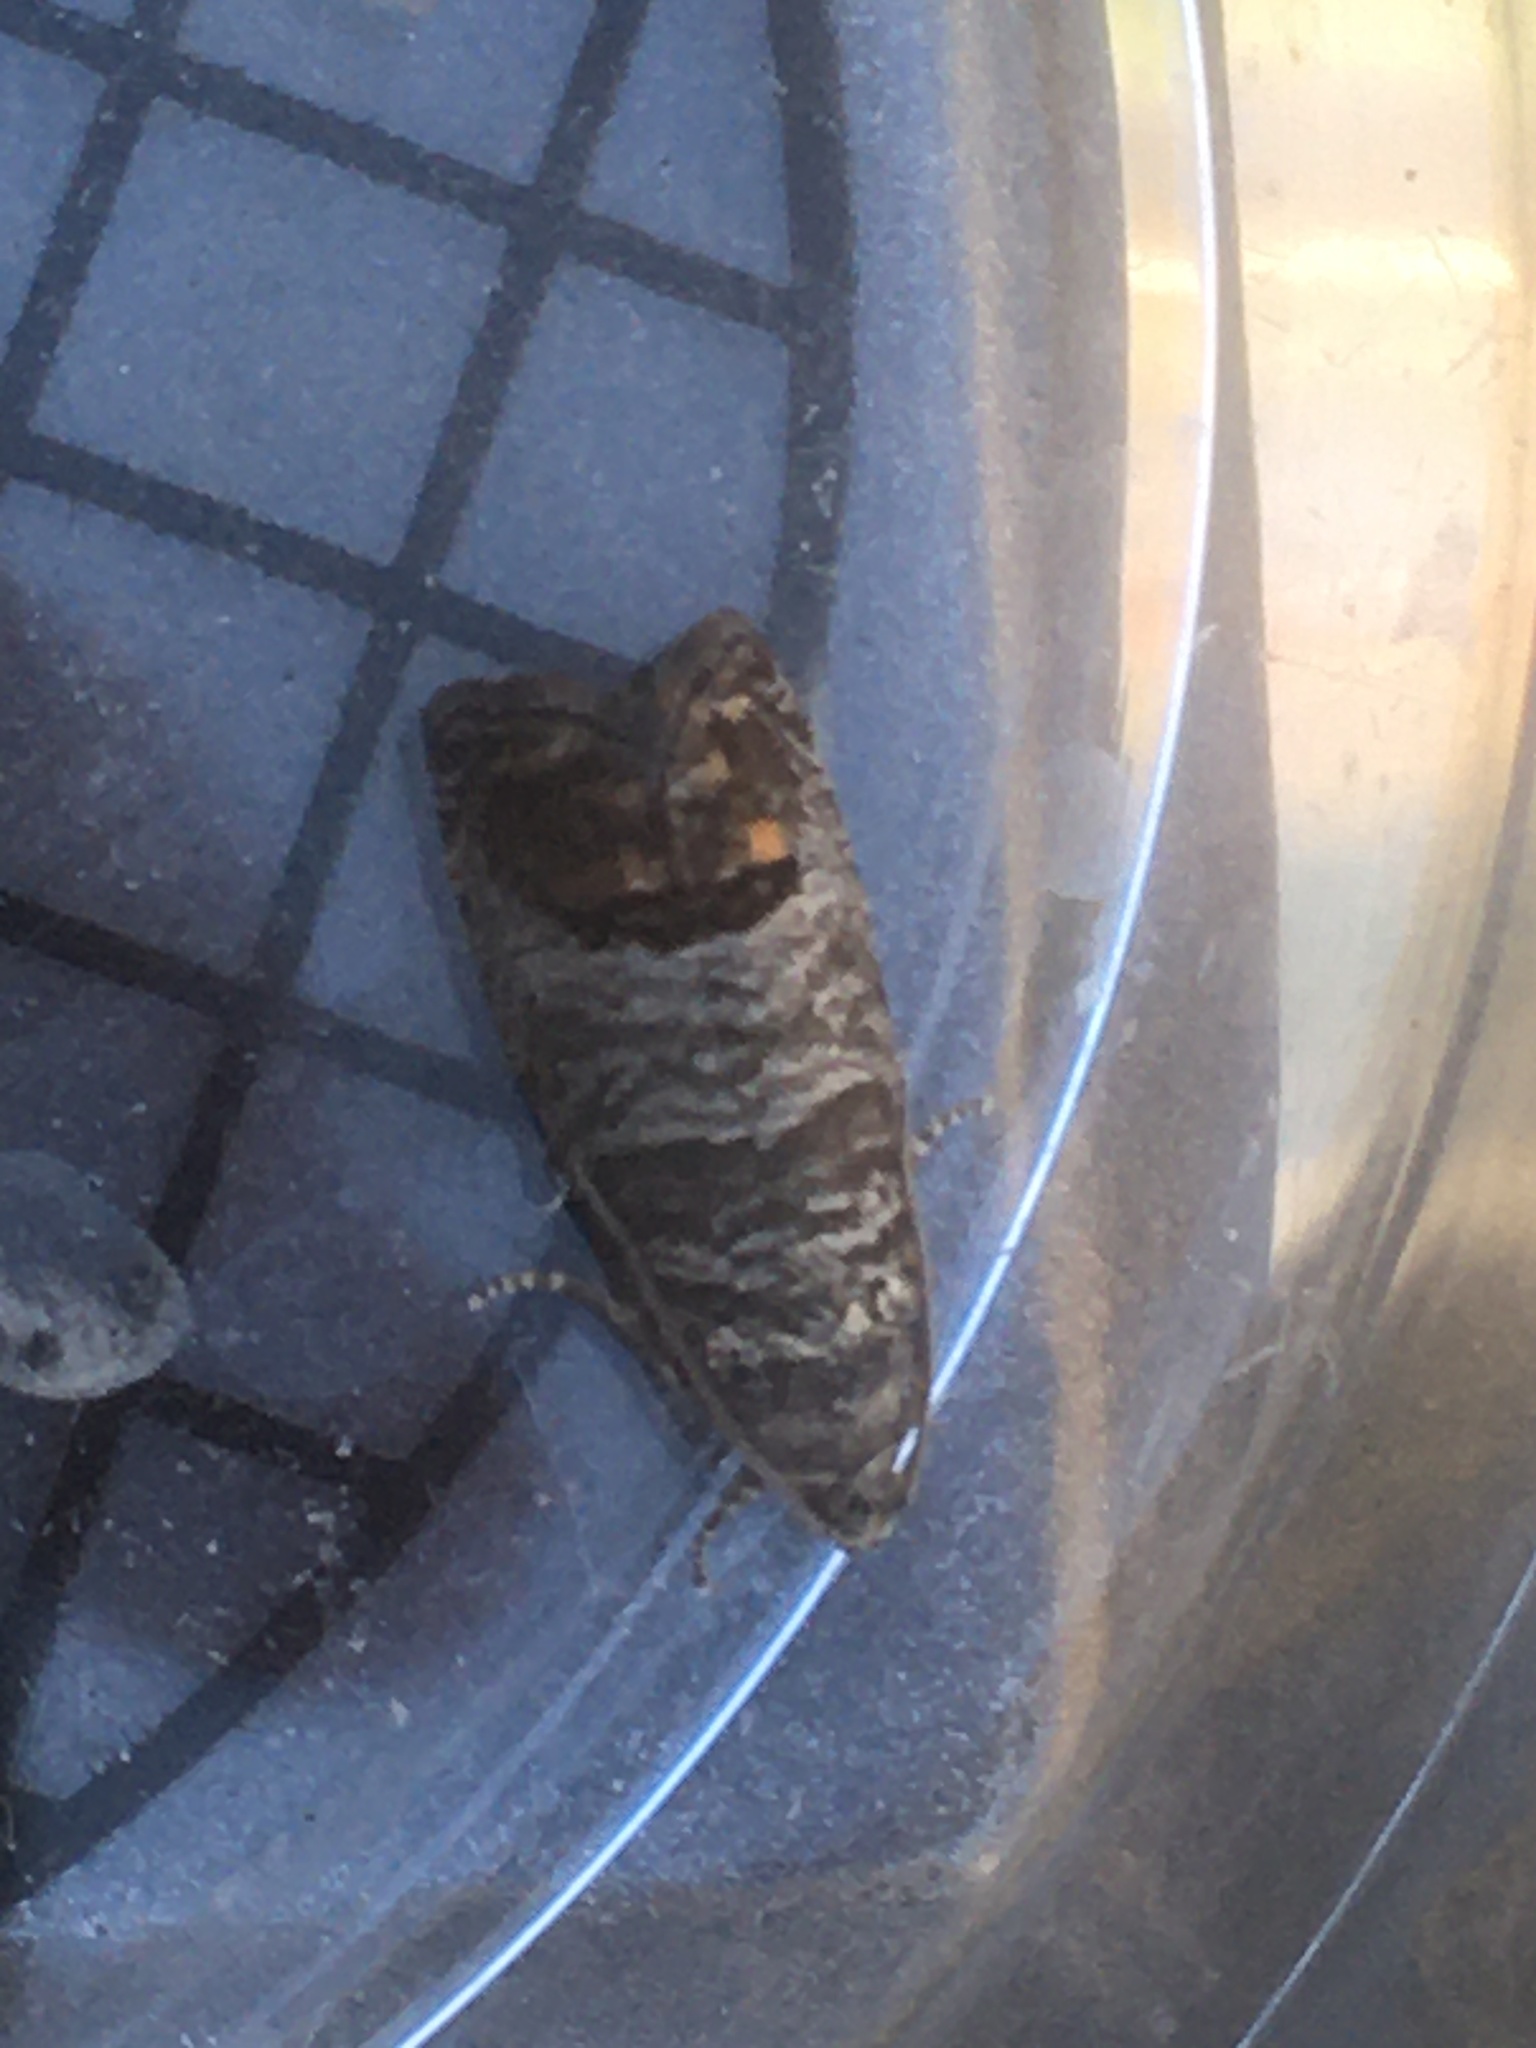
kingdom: Animalia
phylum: Arthropoda
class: Insecta
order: Lepidoptera
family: Tortricidae
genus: Cydia
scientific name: Cydia pomonella
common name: Codling moth
